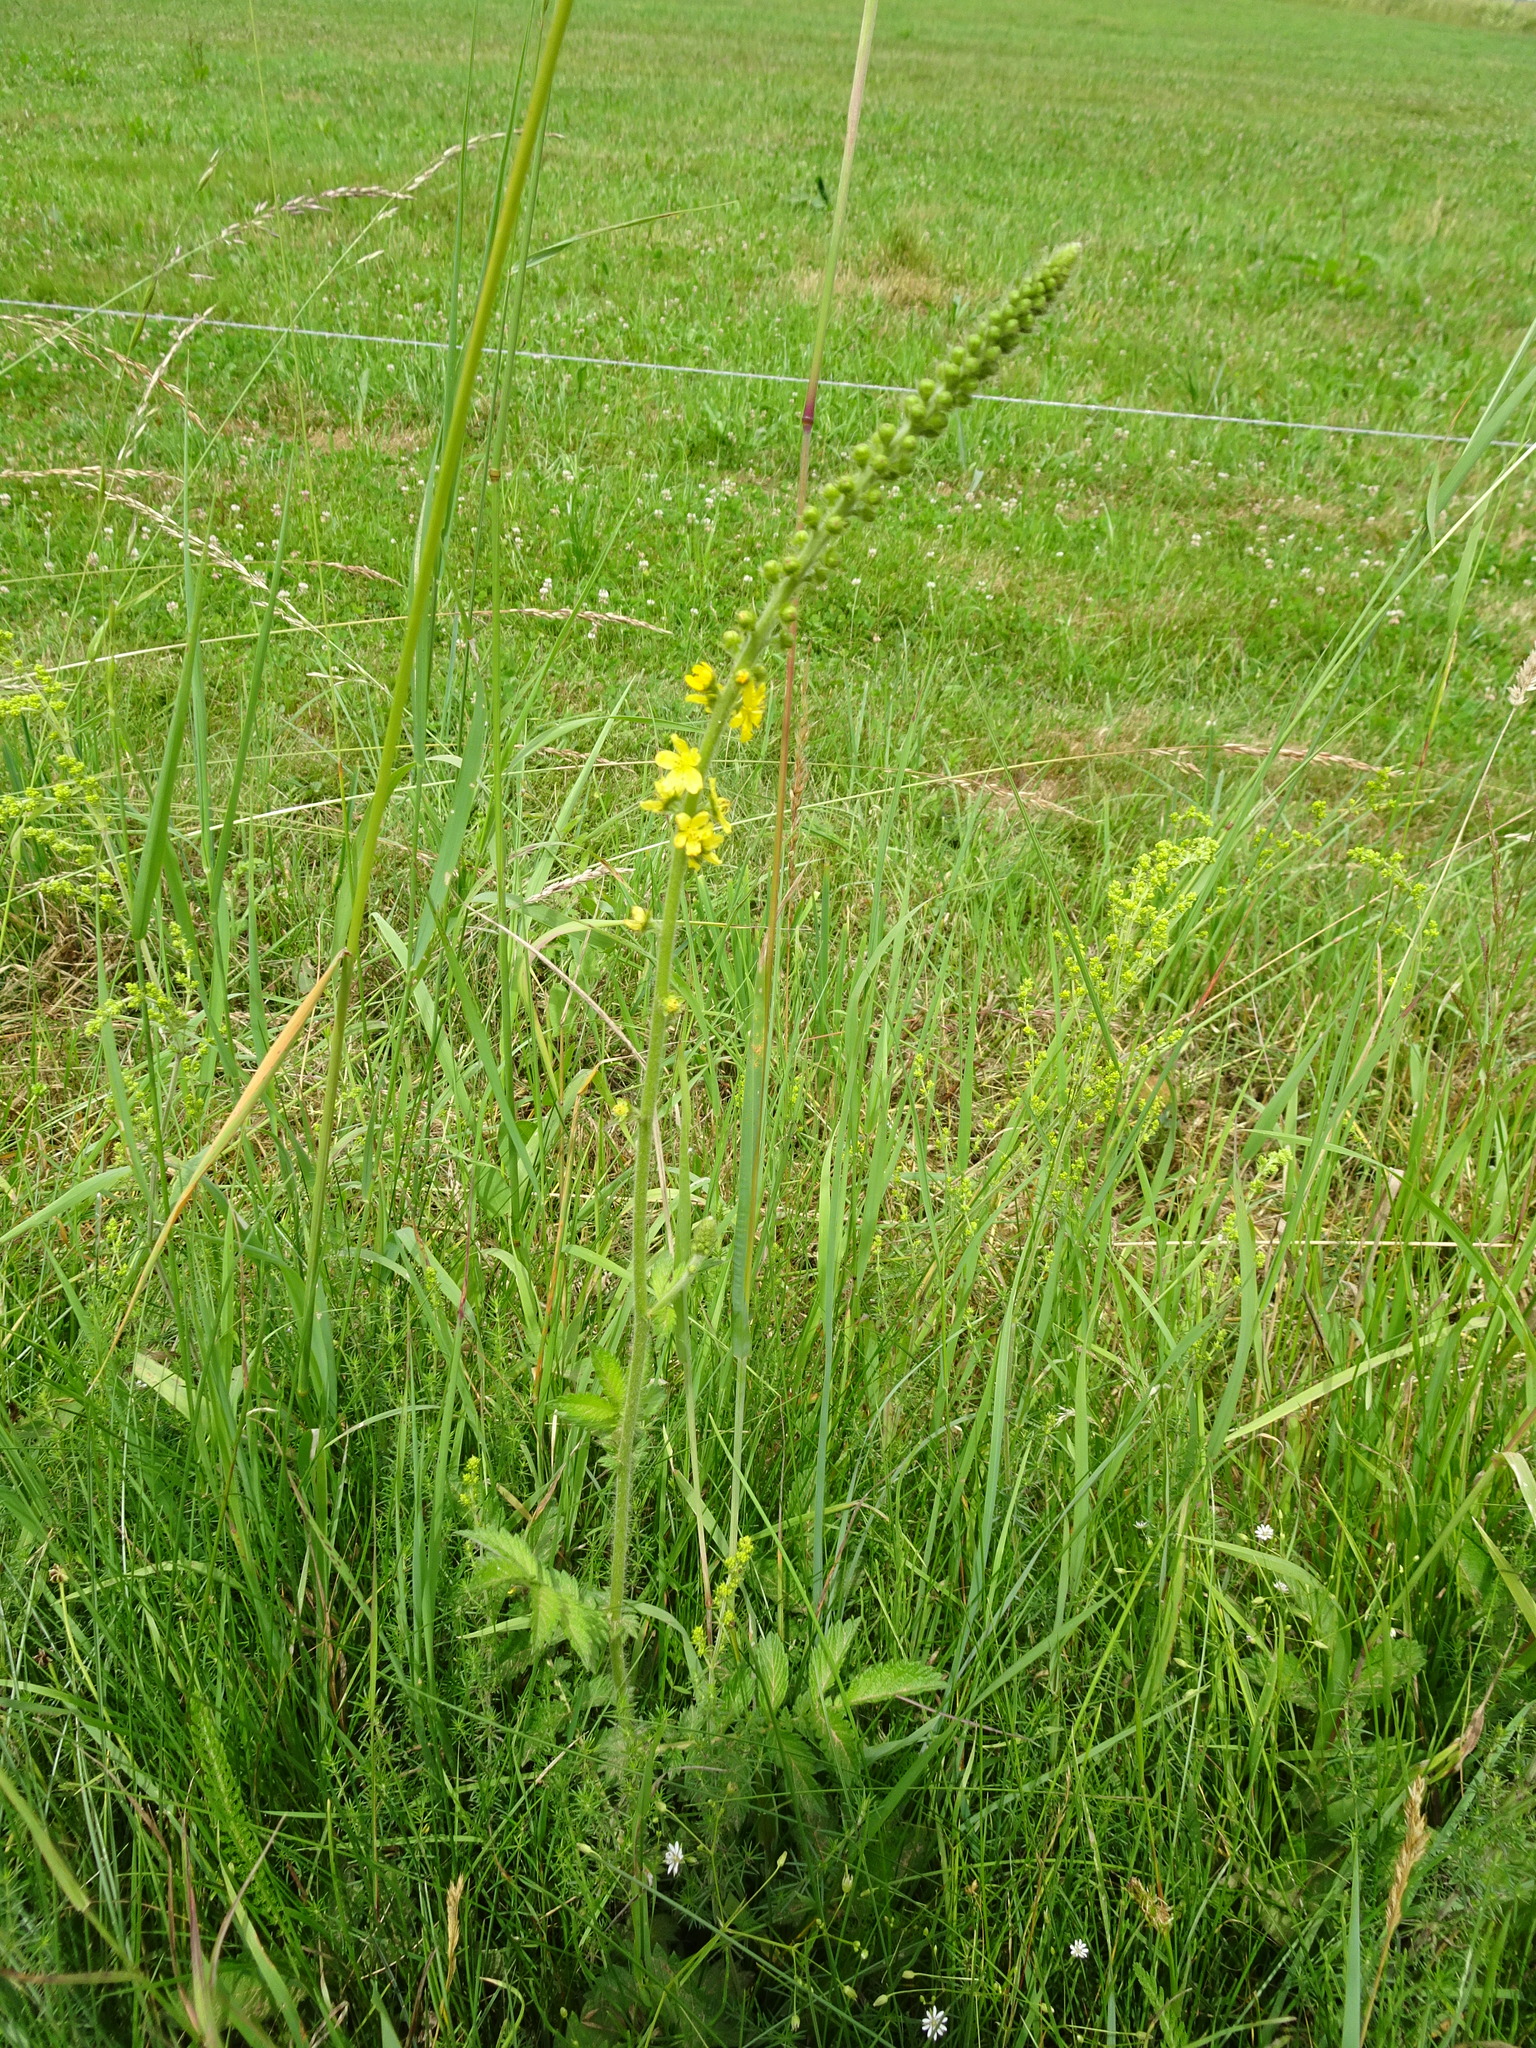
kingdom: Plantae
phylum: Tracheophyta
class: Magnoliopsida
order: Rosales
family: Rosaceae
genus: Agrimonia
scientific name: Agrimonia eupatoria
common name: Agrimony
